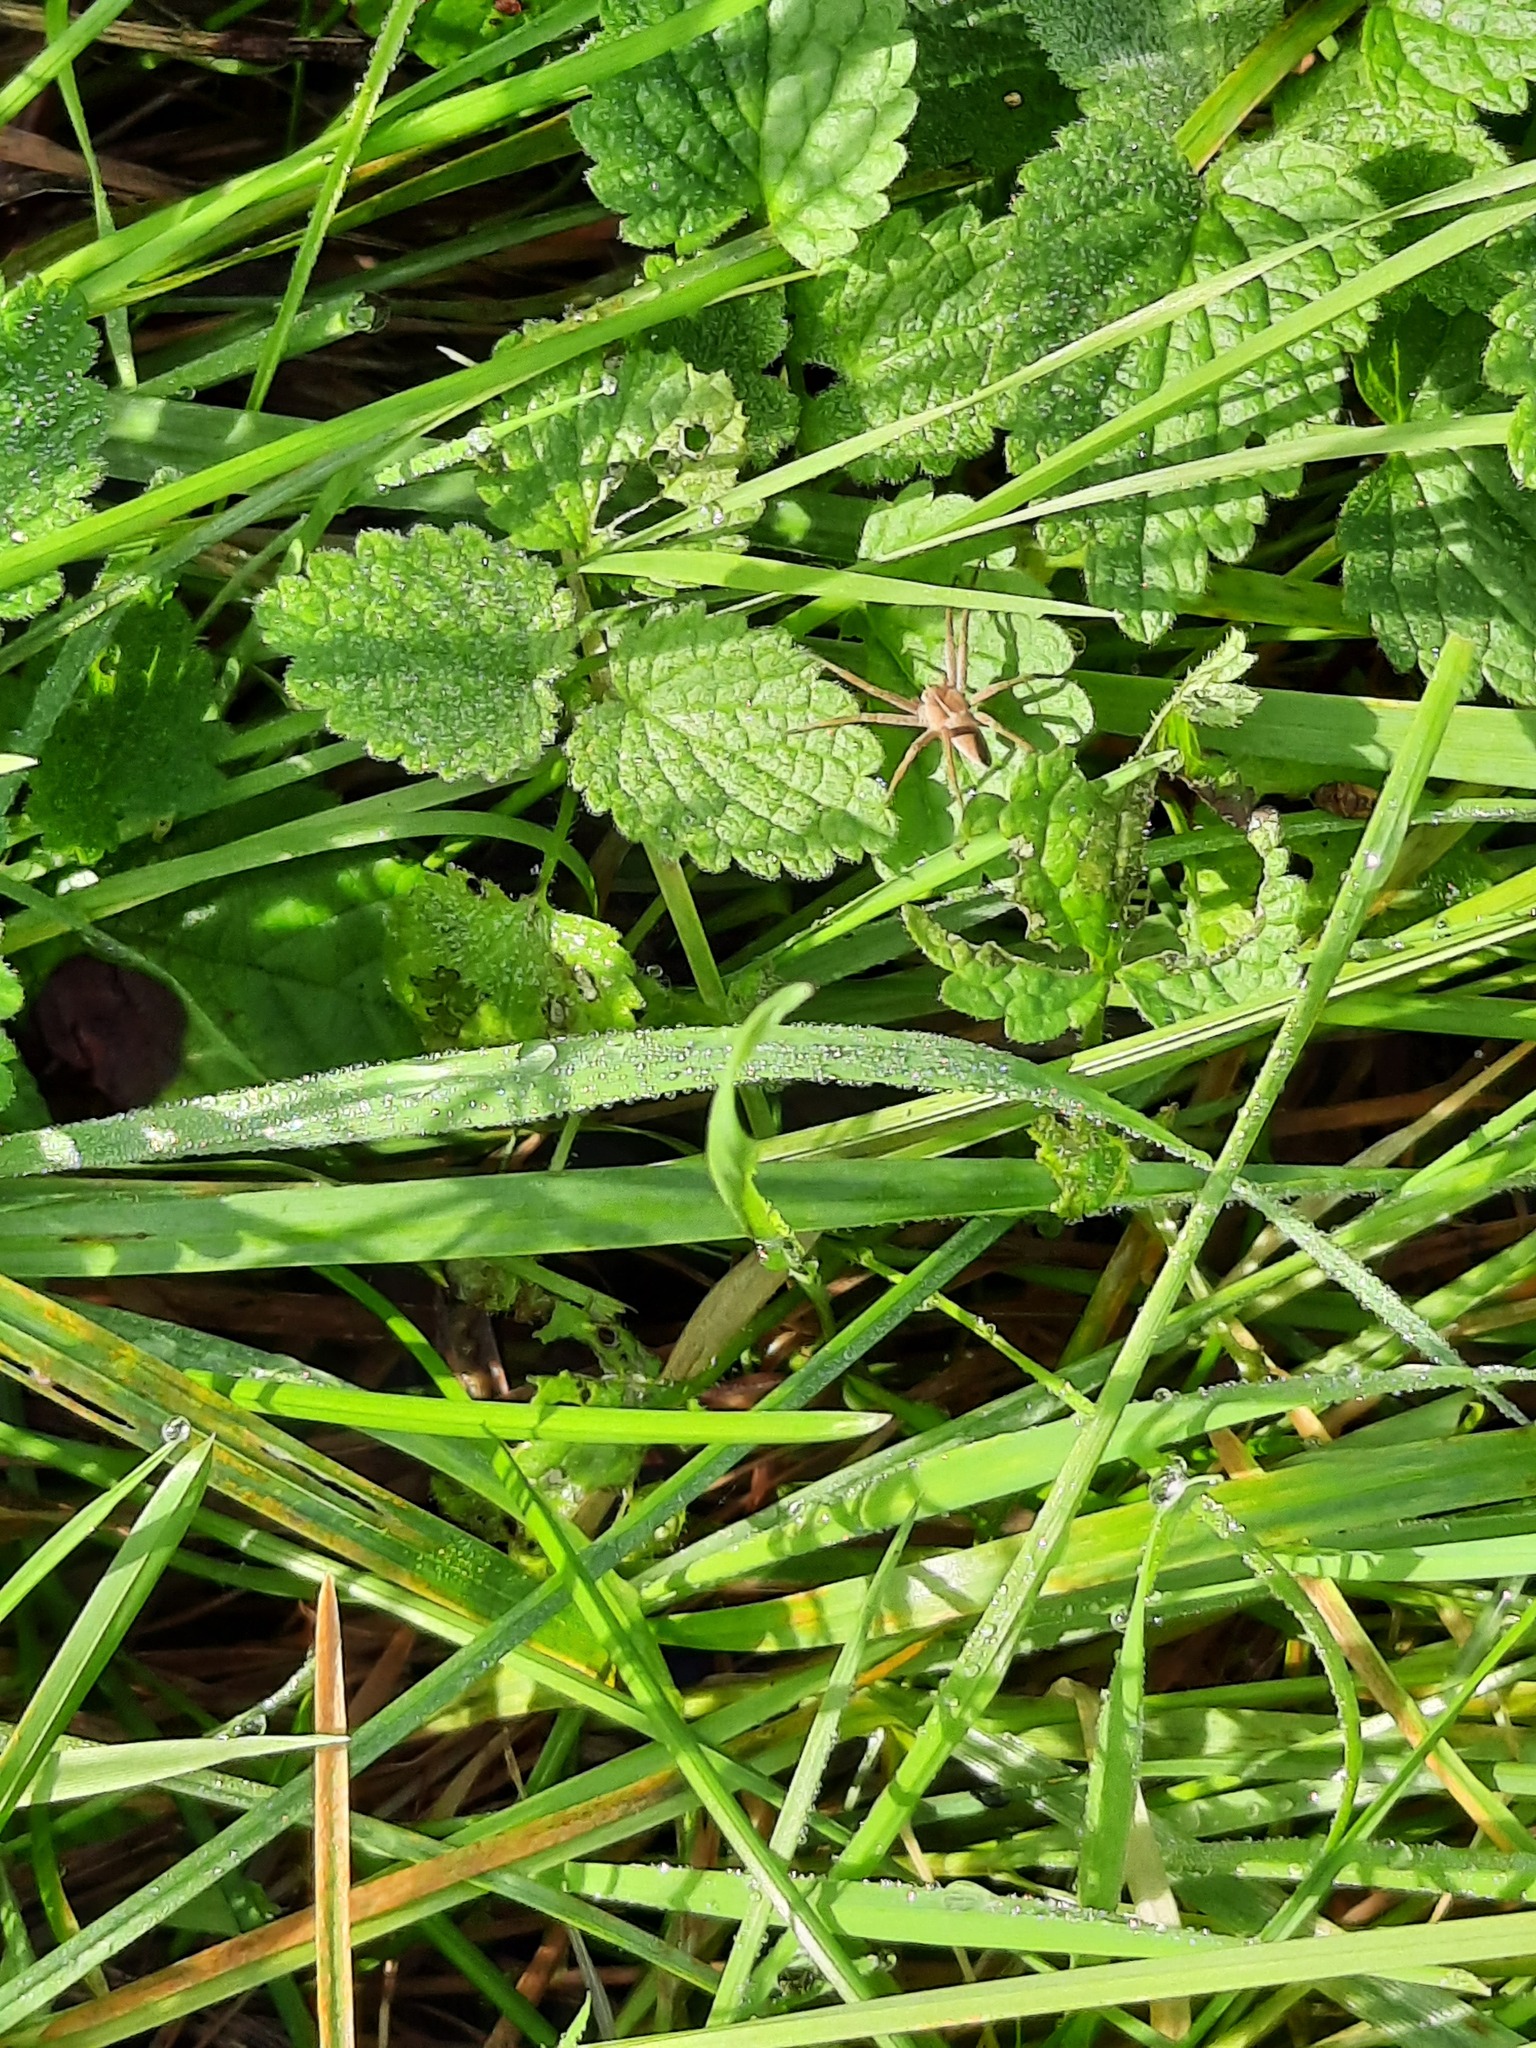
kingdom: Animalia
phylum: Arthropoda
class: Arachnida
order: Araneae
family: Pisauridae
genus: Pisaura
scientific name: Pisaura mirabilis
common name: Tent spider
